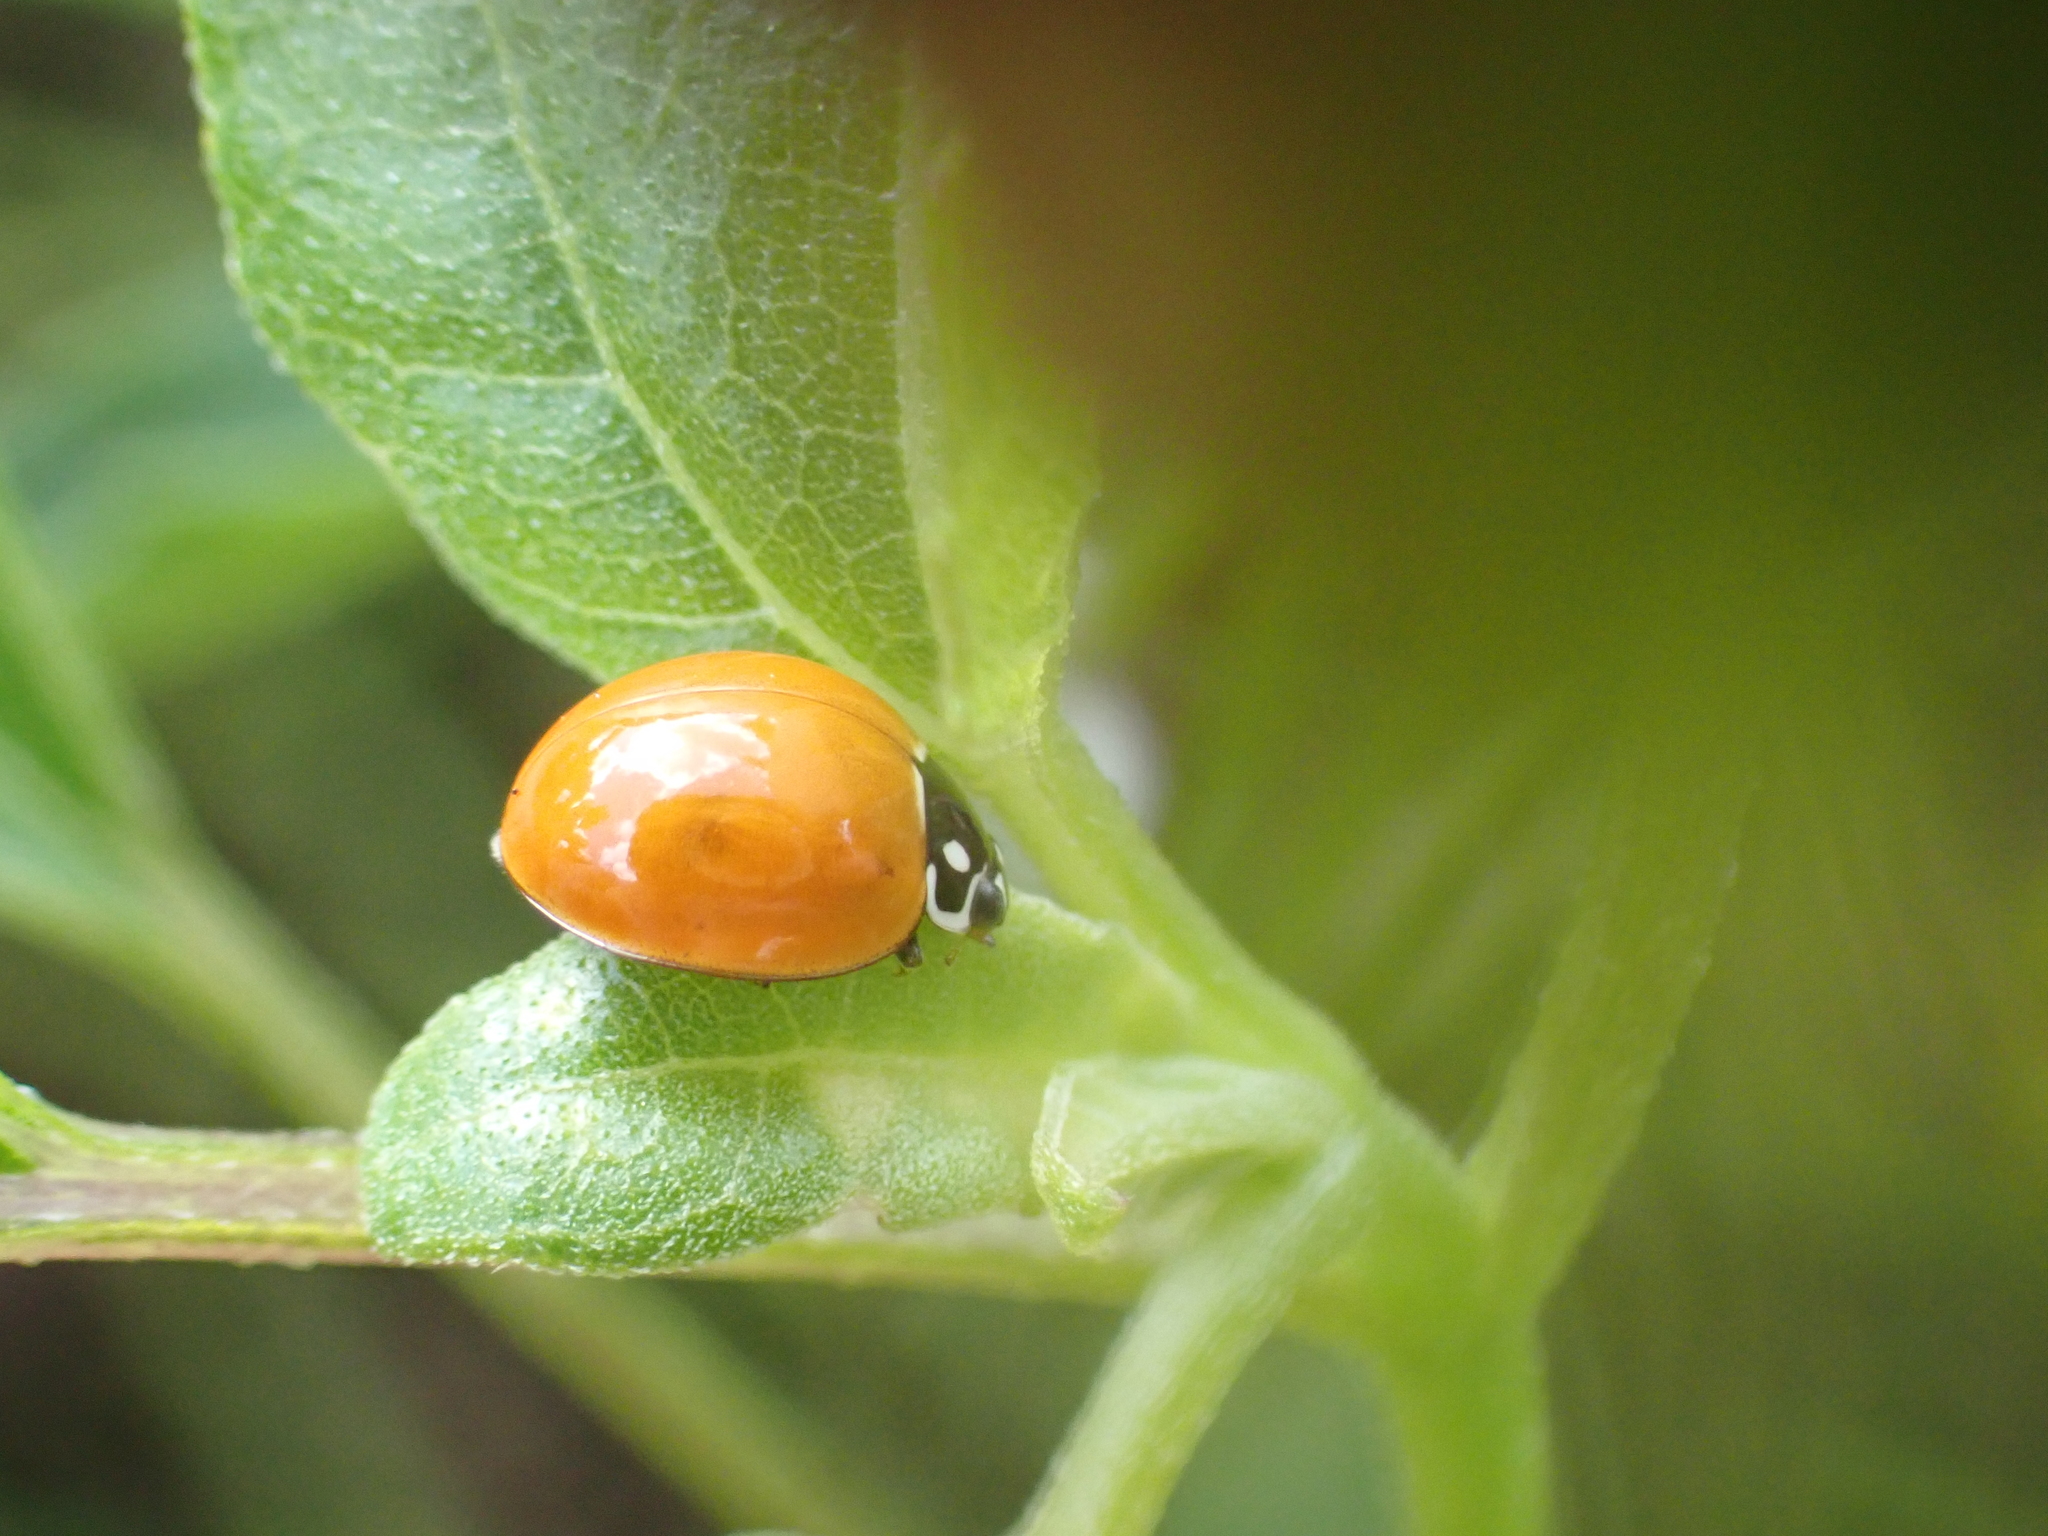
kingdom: Animalia
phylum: Arthropoda
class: Insecta
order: Coleoptera
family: Coccinellidae
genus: Cycloneda
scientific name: Cycloneda sanguinea
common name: Ladybird beetle
